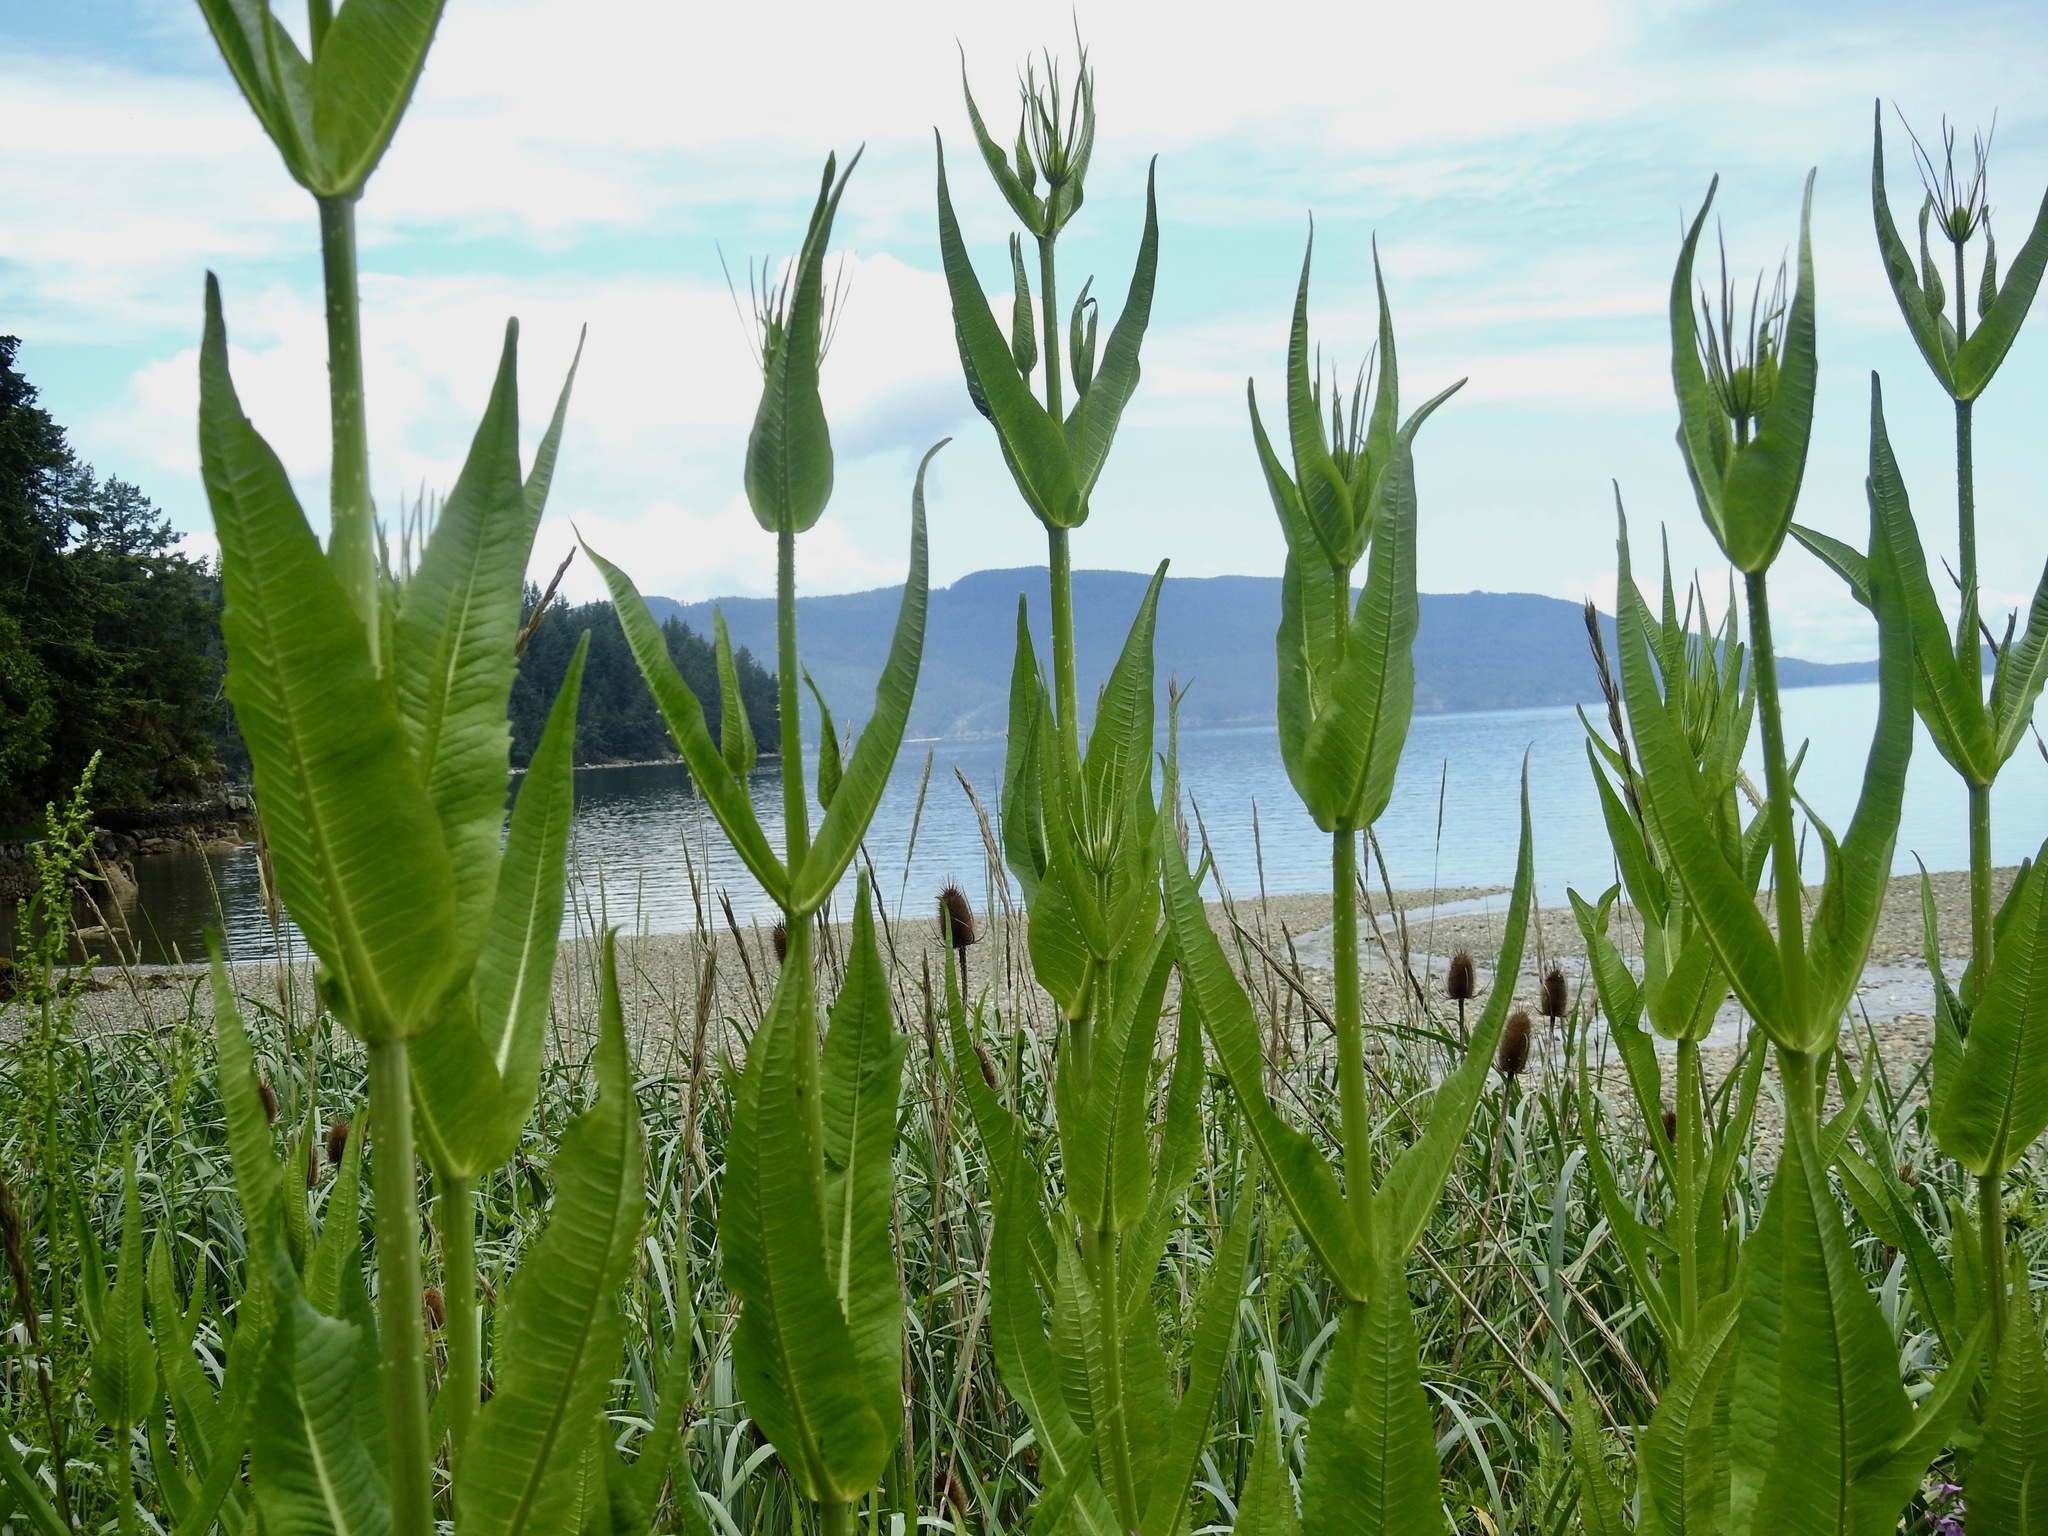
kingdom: Plantae
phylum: Tracheophyta
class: Magnoliopsida
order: Dipsacales
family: Caprifoliaceae
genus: Dipsacus
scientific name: Dipsacus fullonum
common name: Teasel
